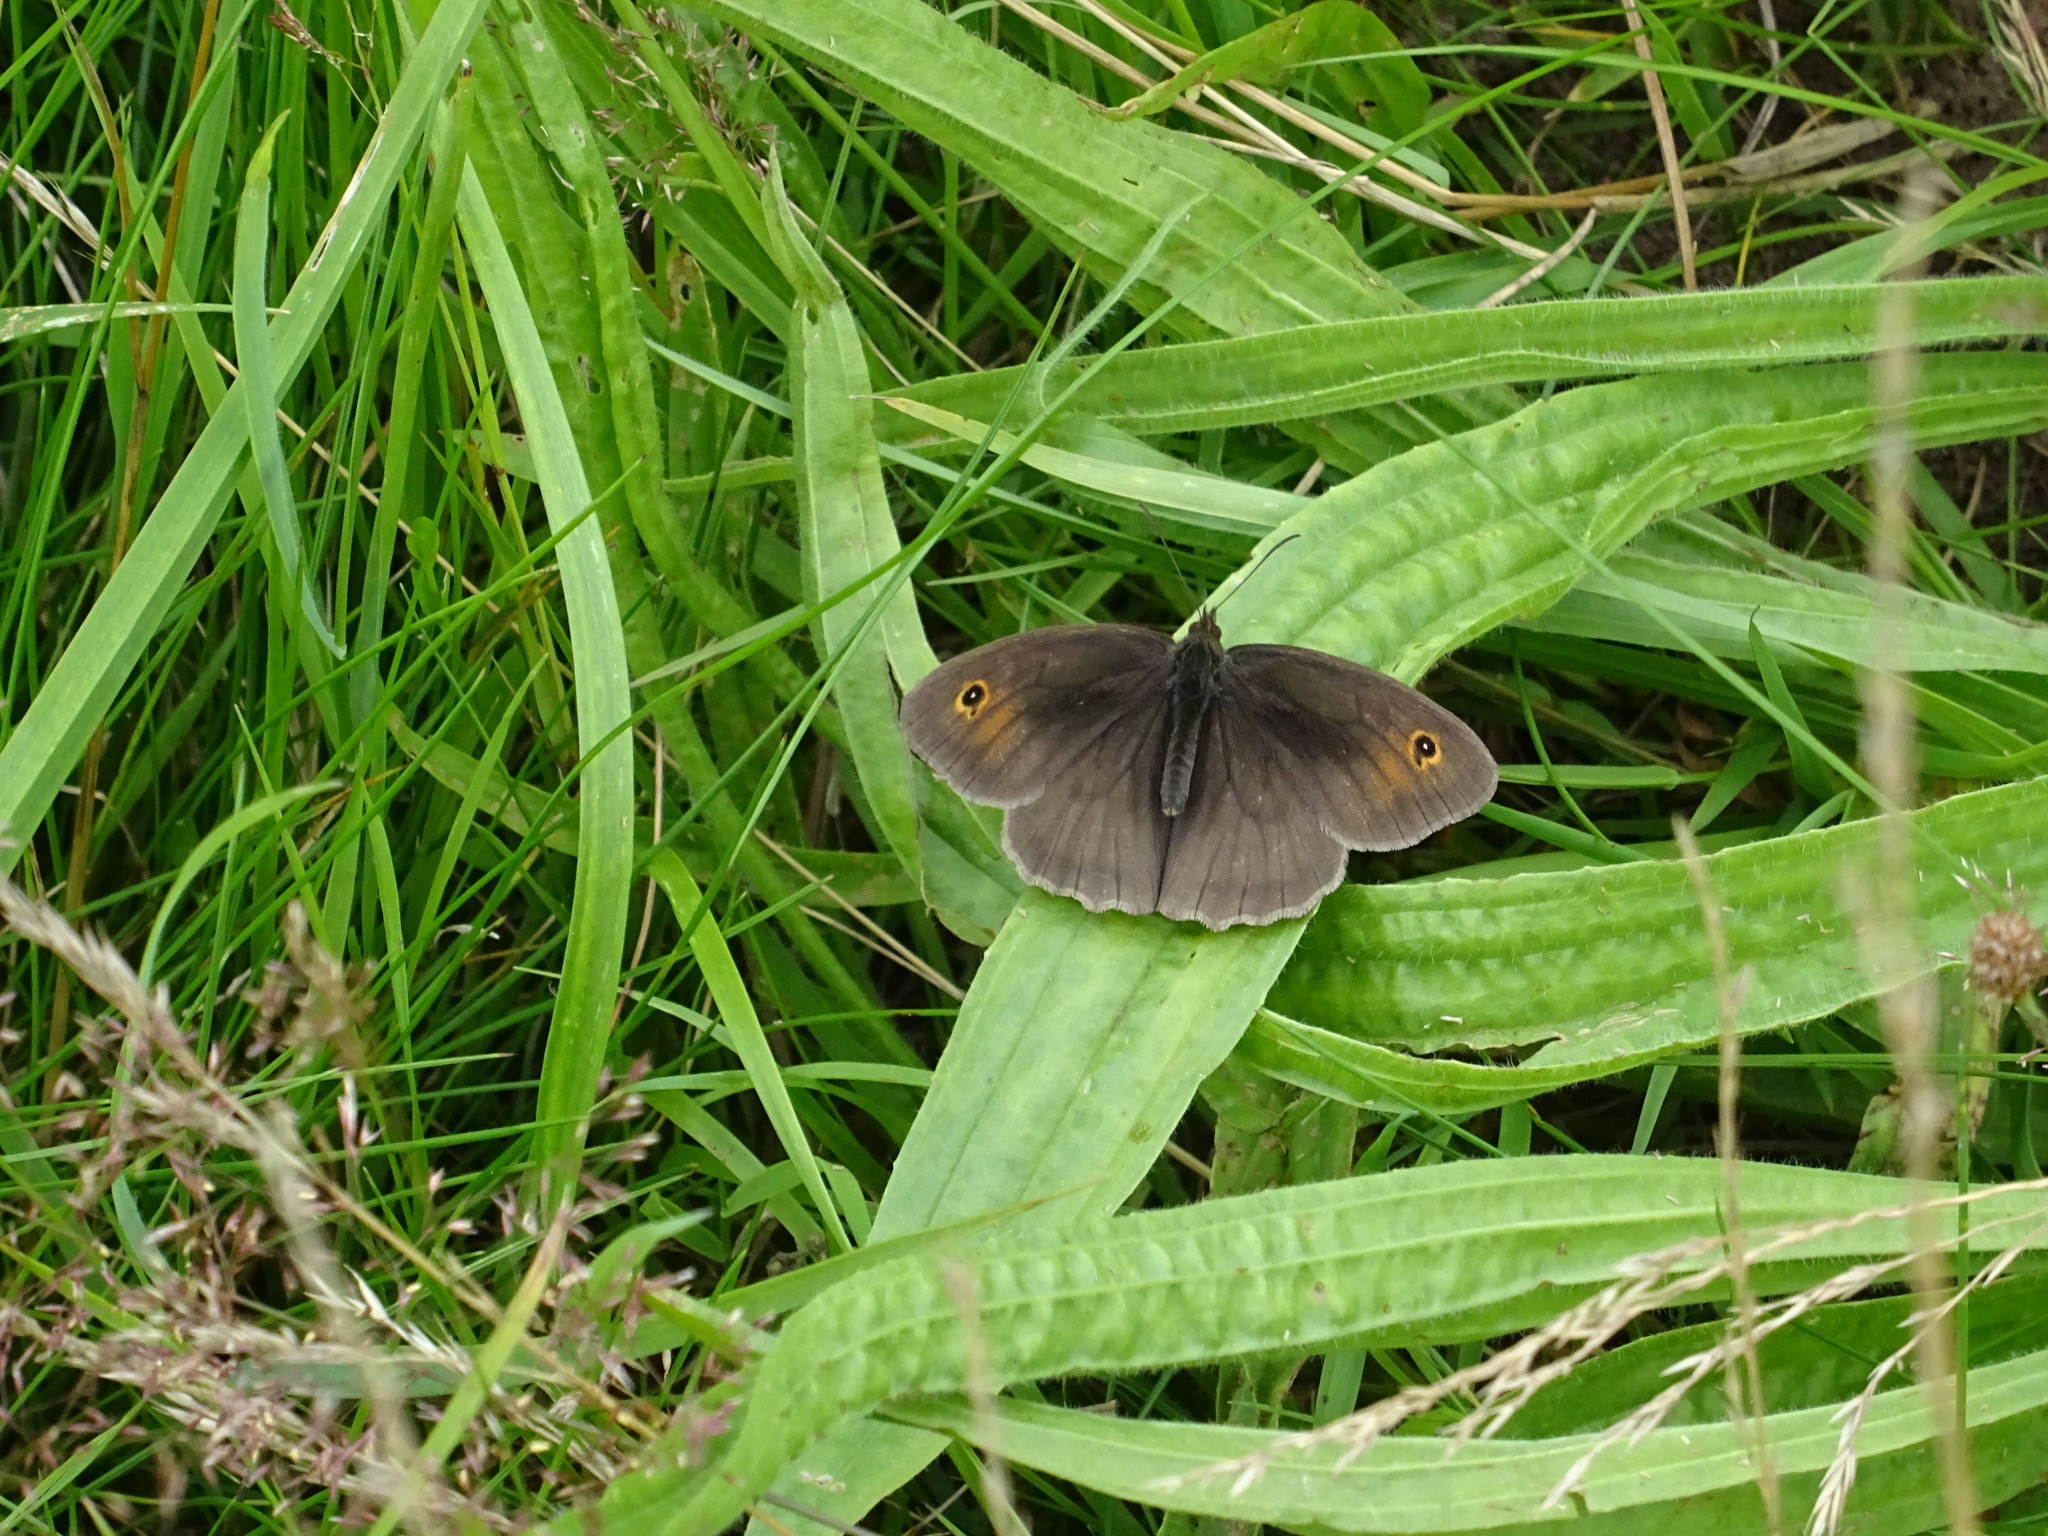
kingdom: Animalia
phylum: Arthropoda
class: Insecta
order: Lepidoptera
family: Nymphalidae
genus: Maniola
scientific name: Maniola jurtina
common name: Meadow brown
